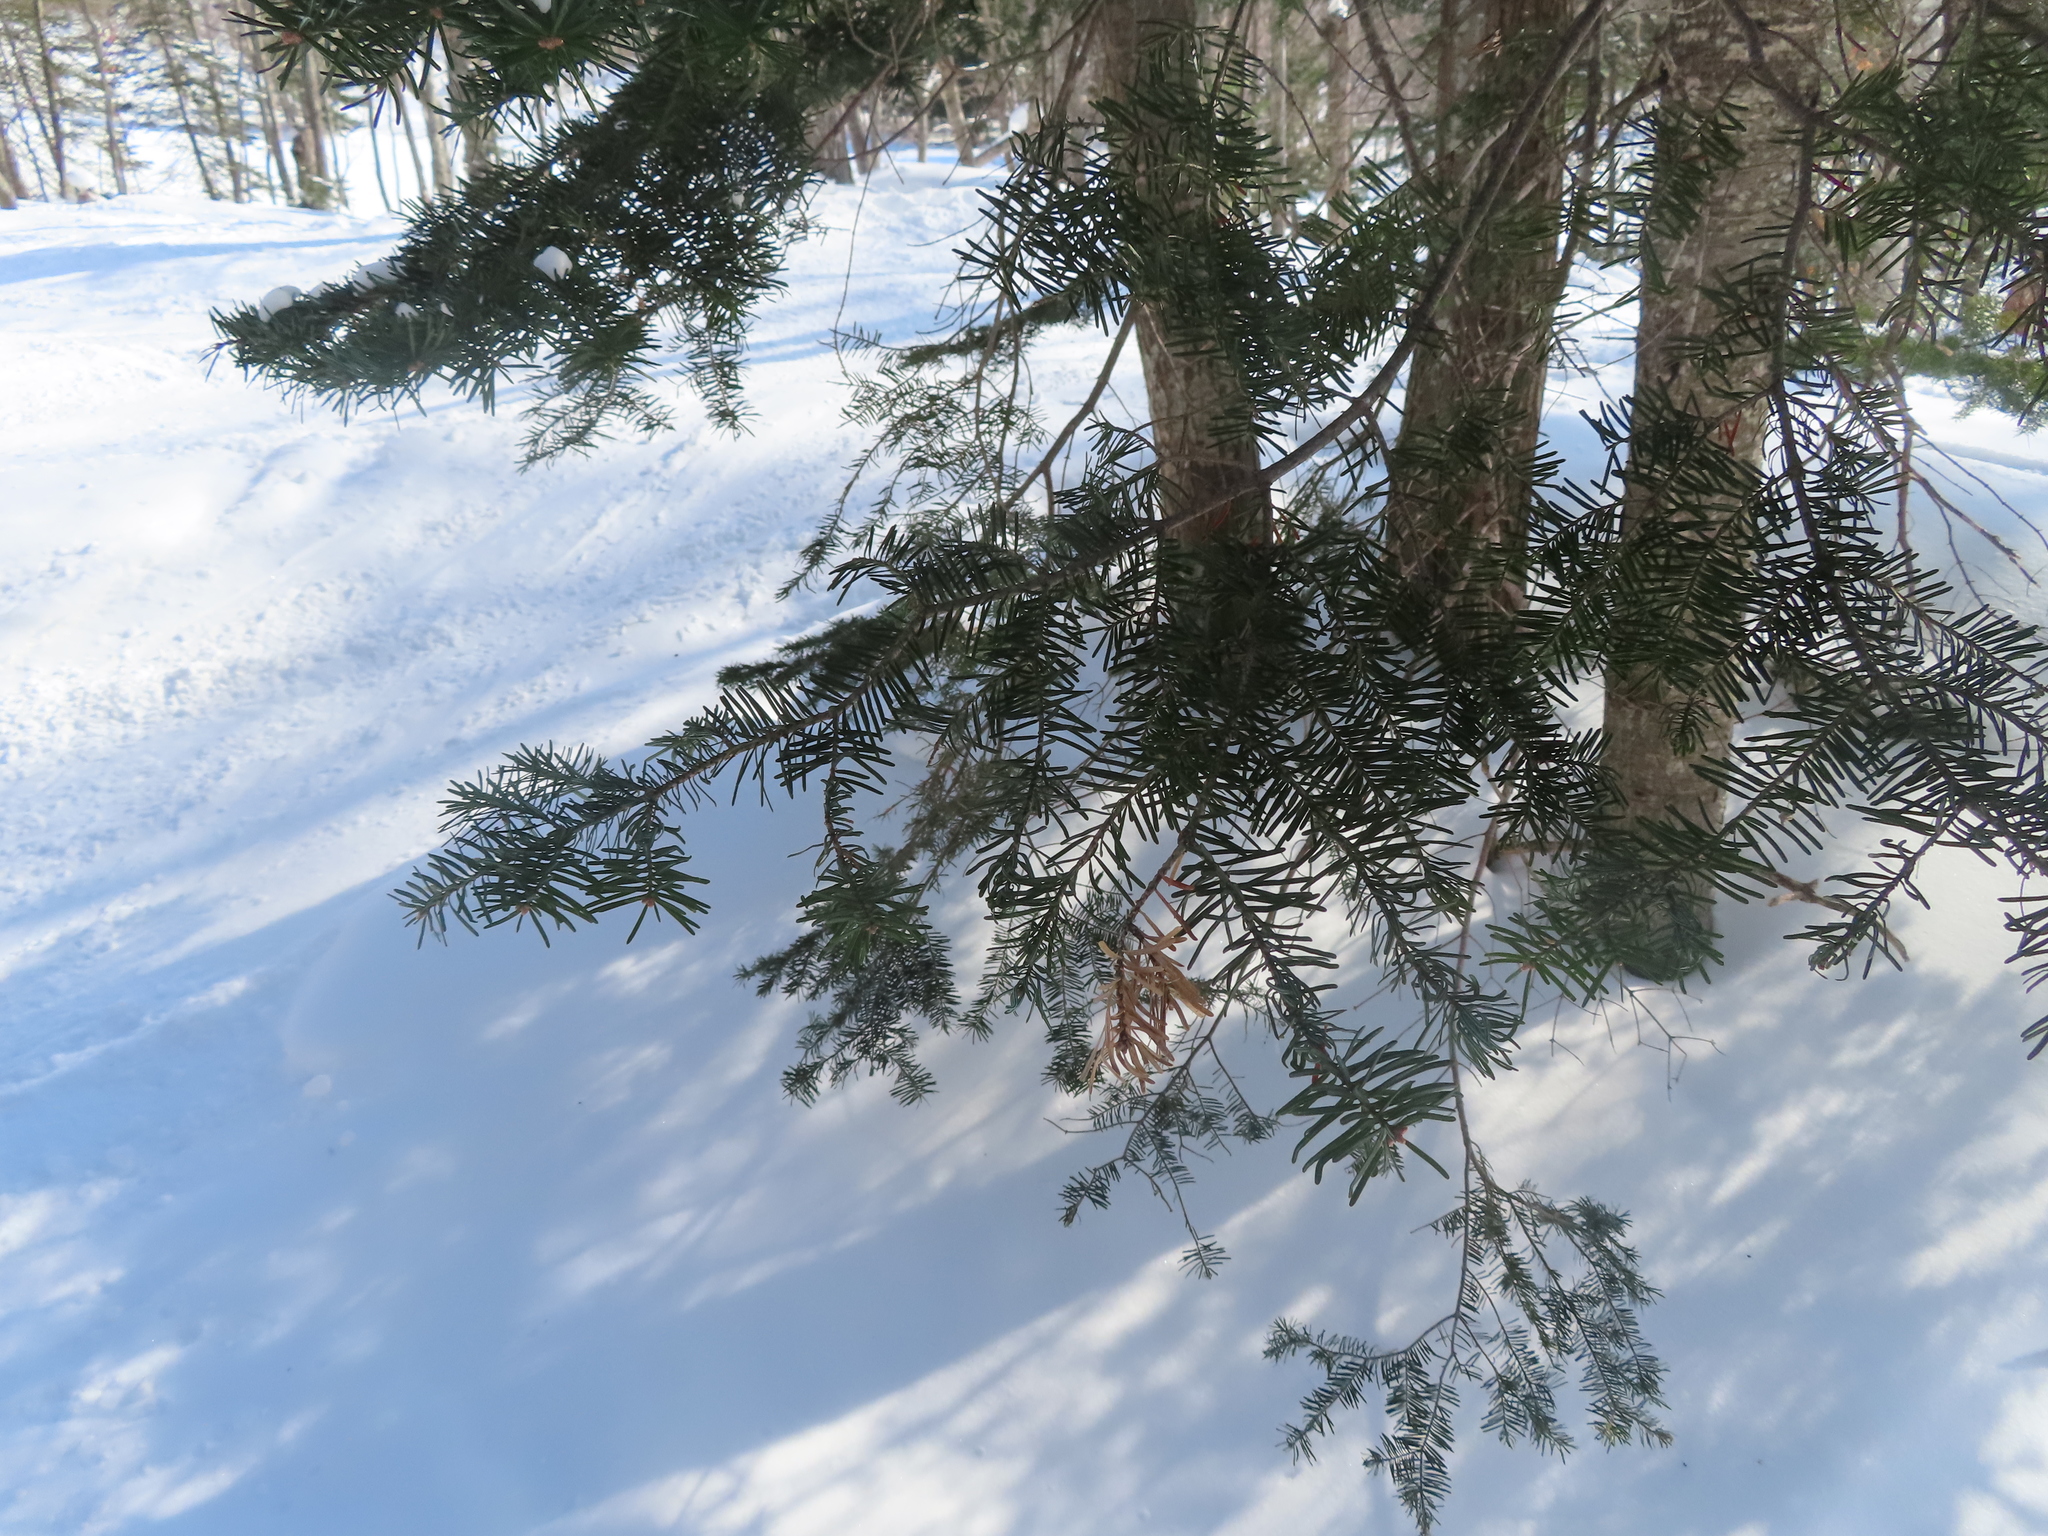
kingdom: Plantae
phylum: Tracheophyta
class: Pinopsida
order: Pinales
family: Pinaceae
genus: Abies
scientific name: Abies balsamea
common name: Balsam fir
